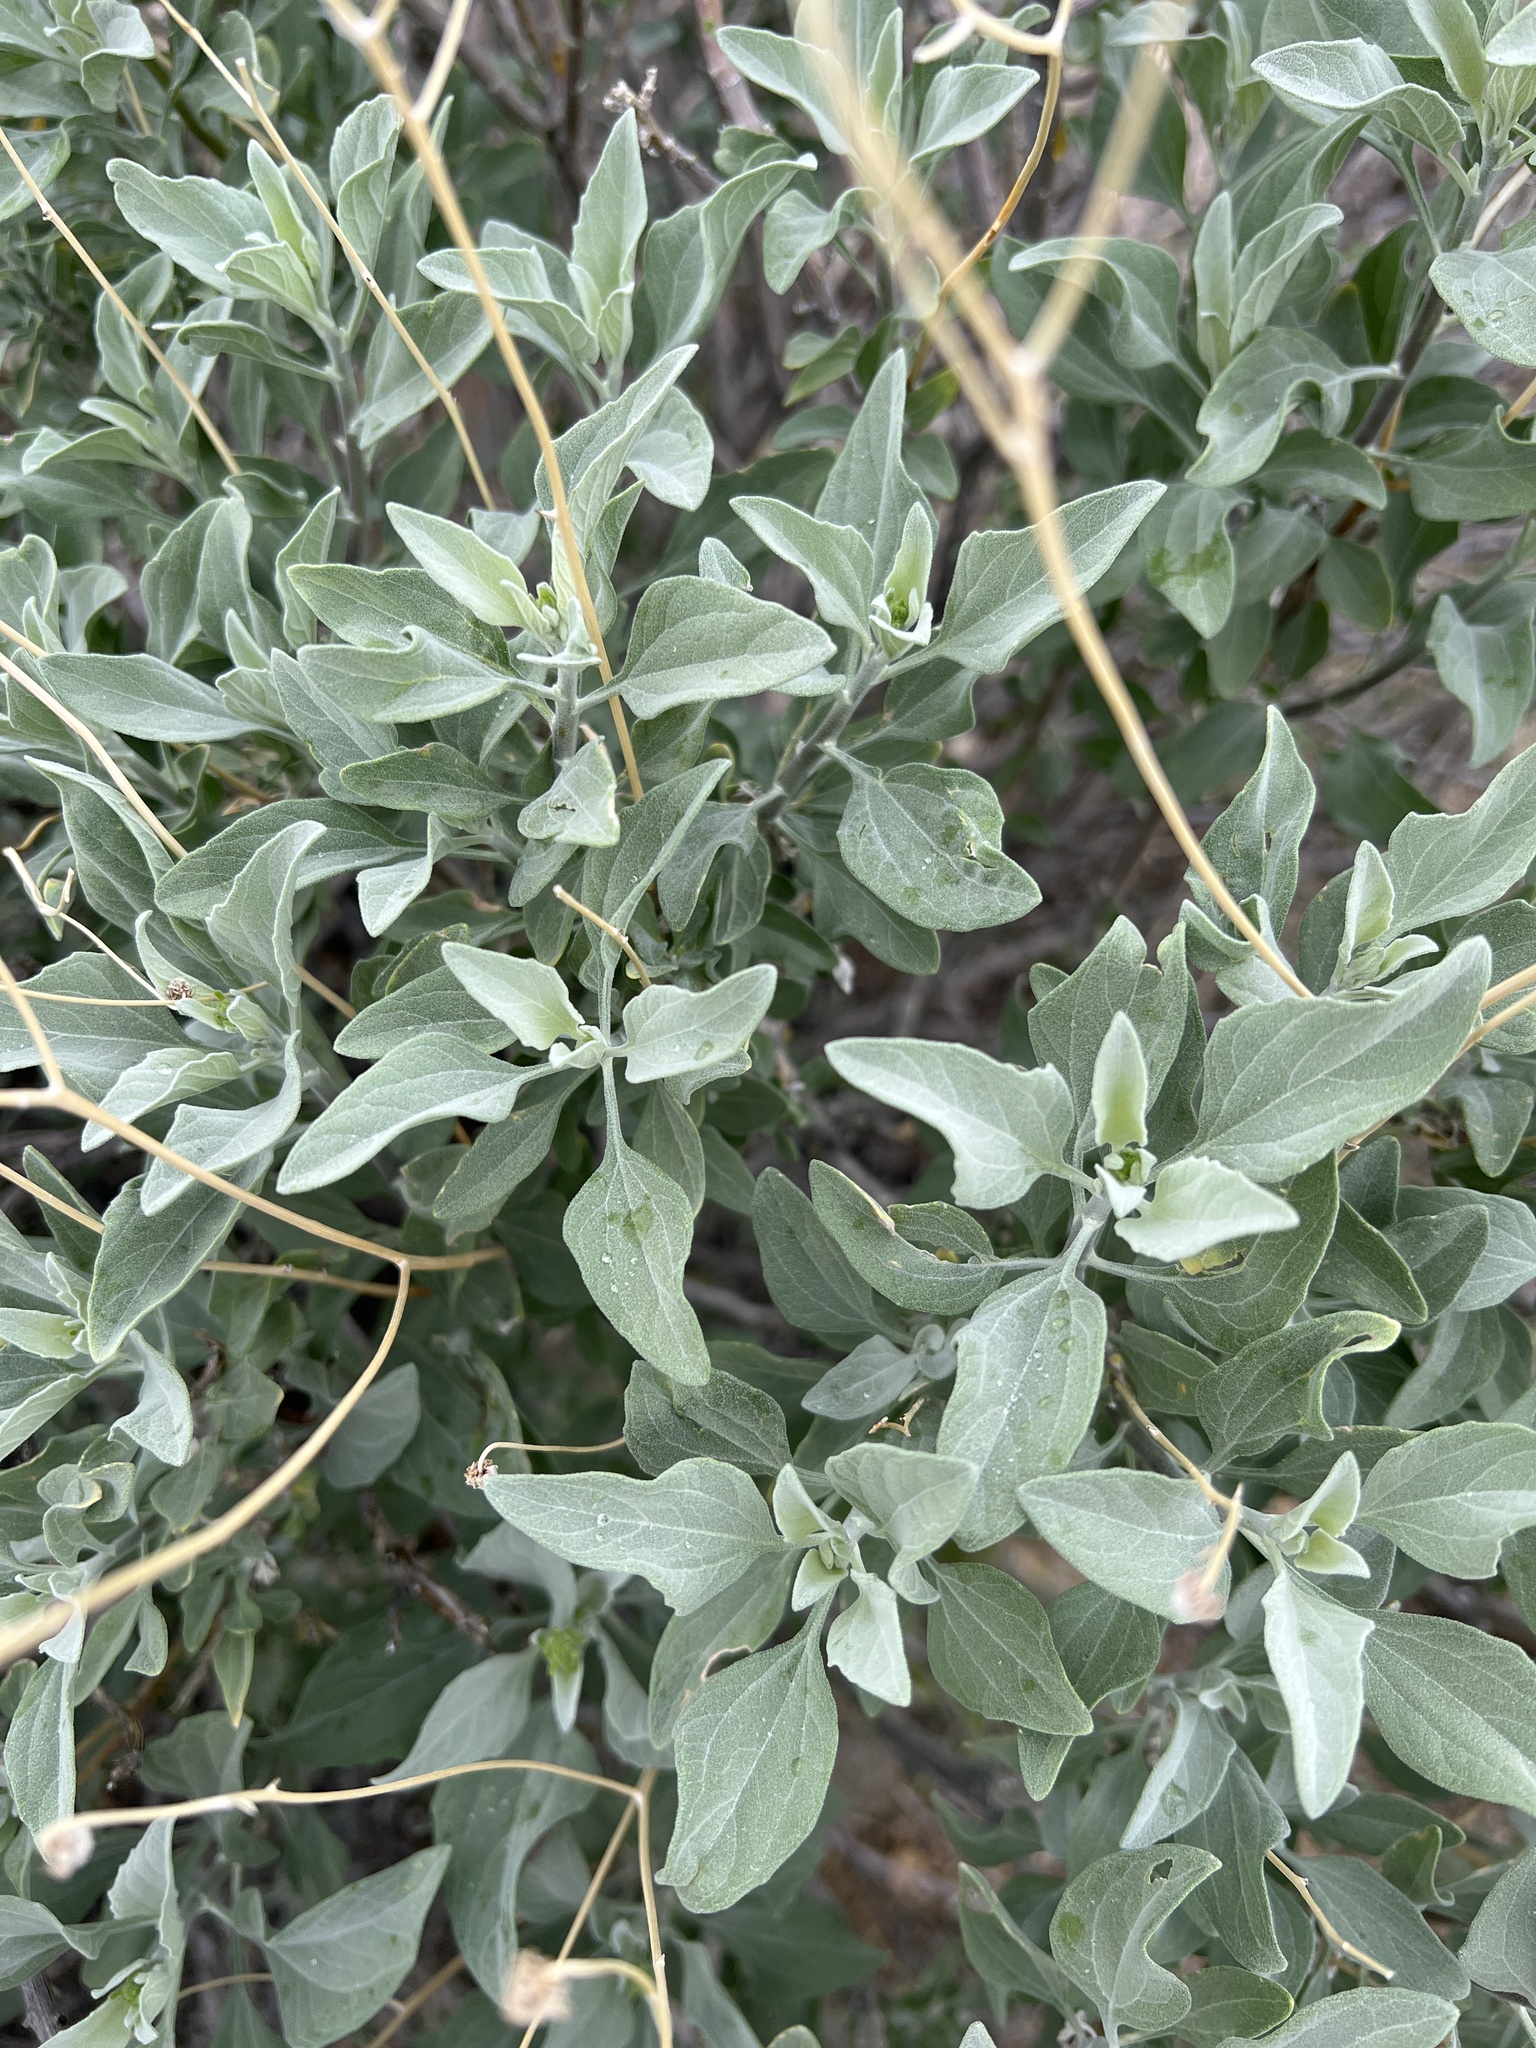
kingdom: Plantae
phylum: Tracheophyta
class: Magnoliopsida
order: Asterales
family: Asteraceae
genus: Encelia
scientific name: Encelia farinosa
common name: Brittlebush
